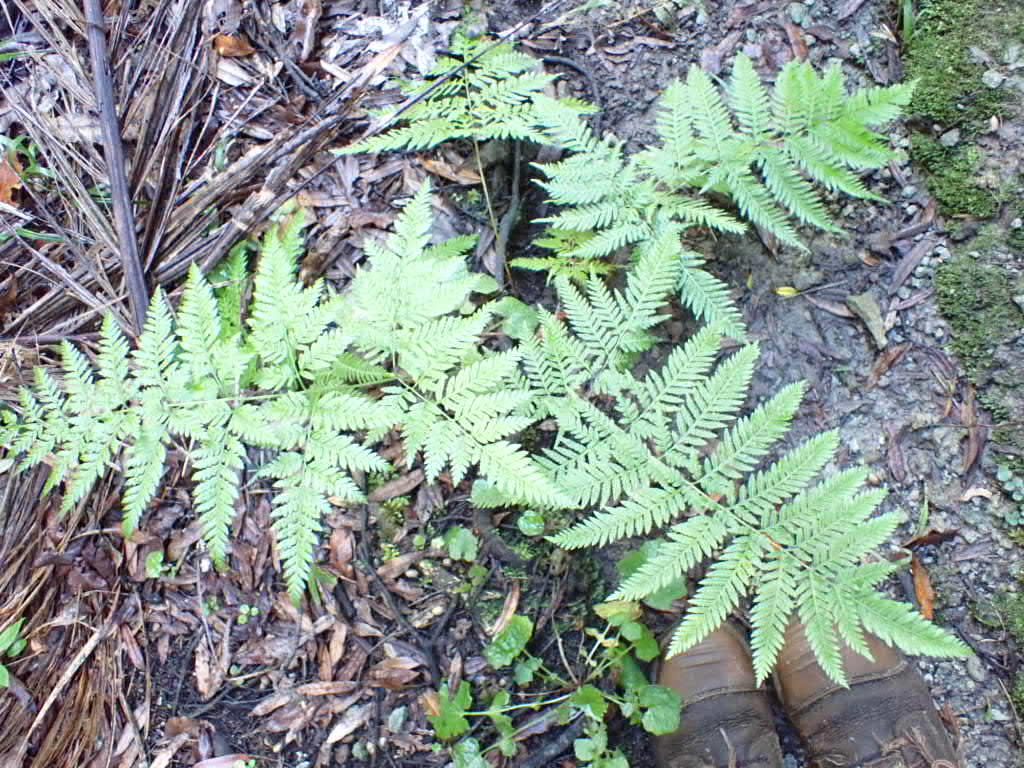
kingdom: Plantae
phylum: Tracheophyta
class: Polypodiopsida
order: Polypodiales
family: Pteridaceae
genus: Pteris
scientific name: Pteris tremula
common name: Australian brake
